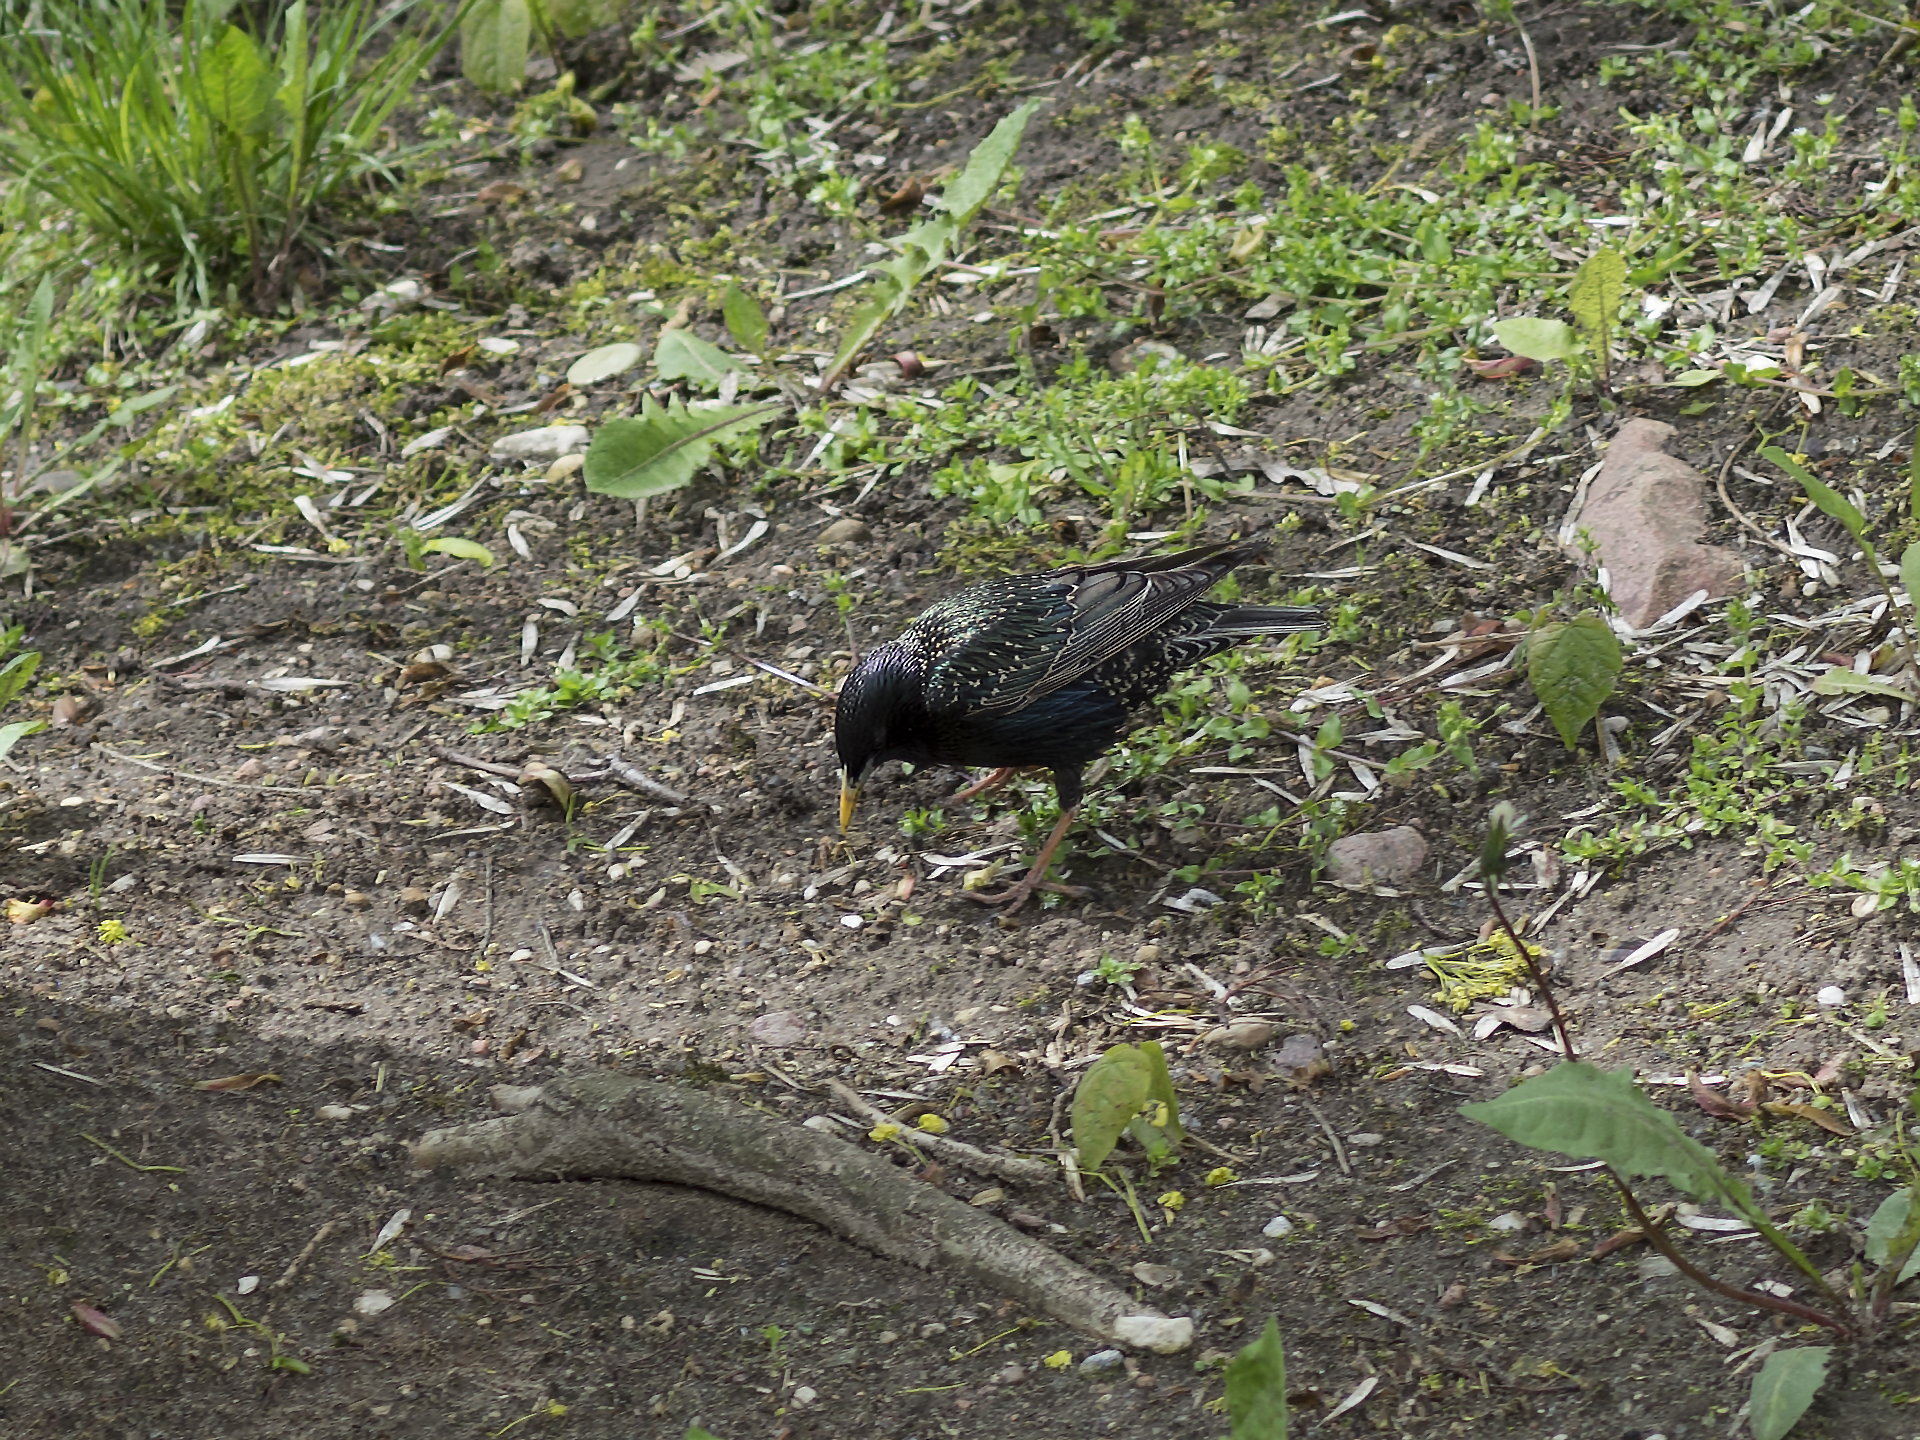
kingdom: Animalia
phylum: Chordata
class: Aves
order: Passeriformes
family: Sturnidae
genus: Sturnus
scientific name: Sturnus vulgaris
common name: Common starling
